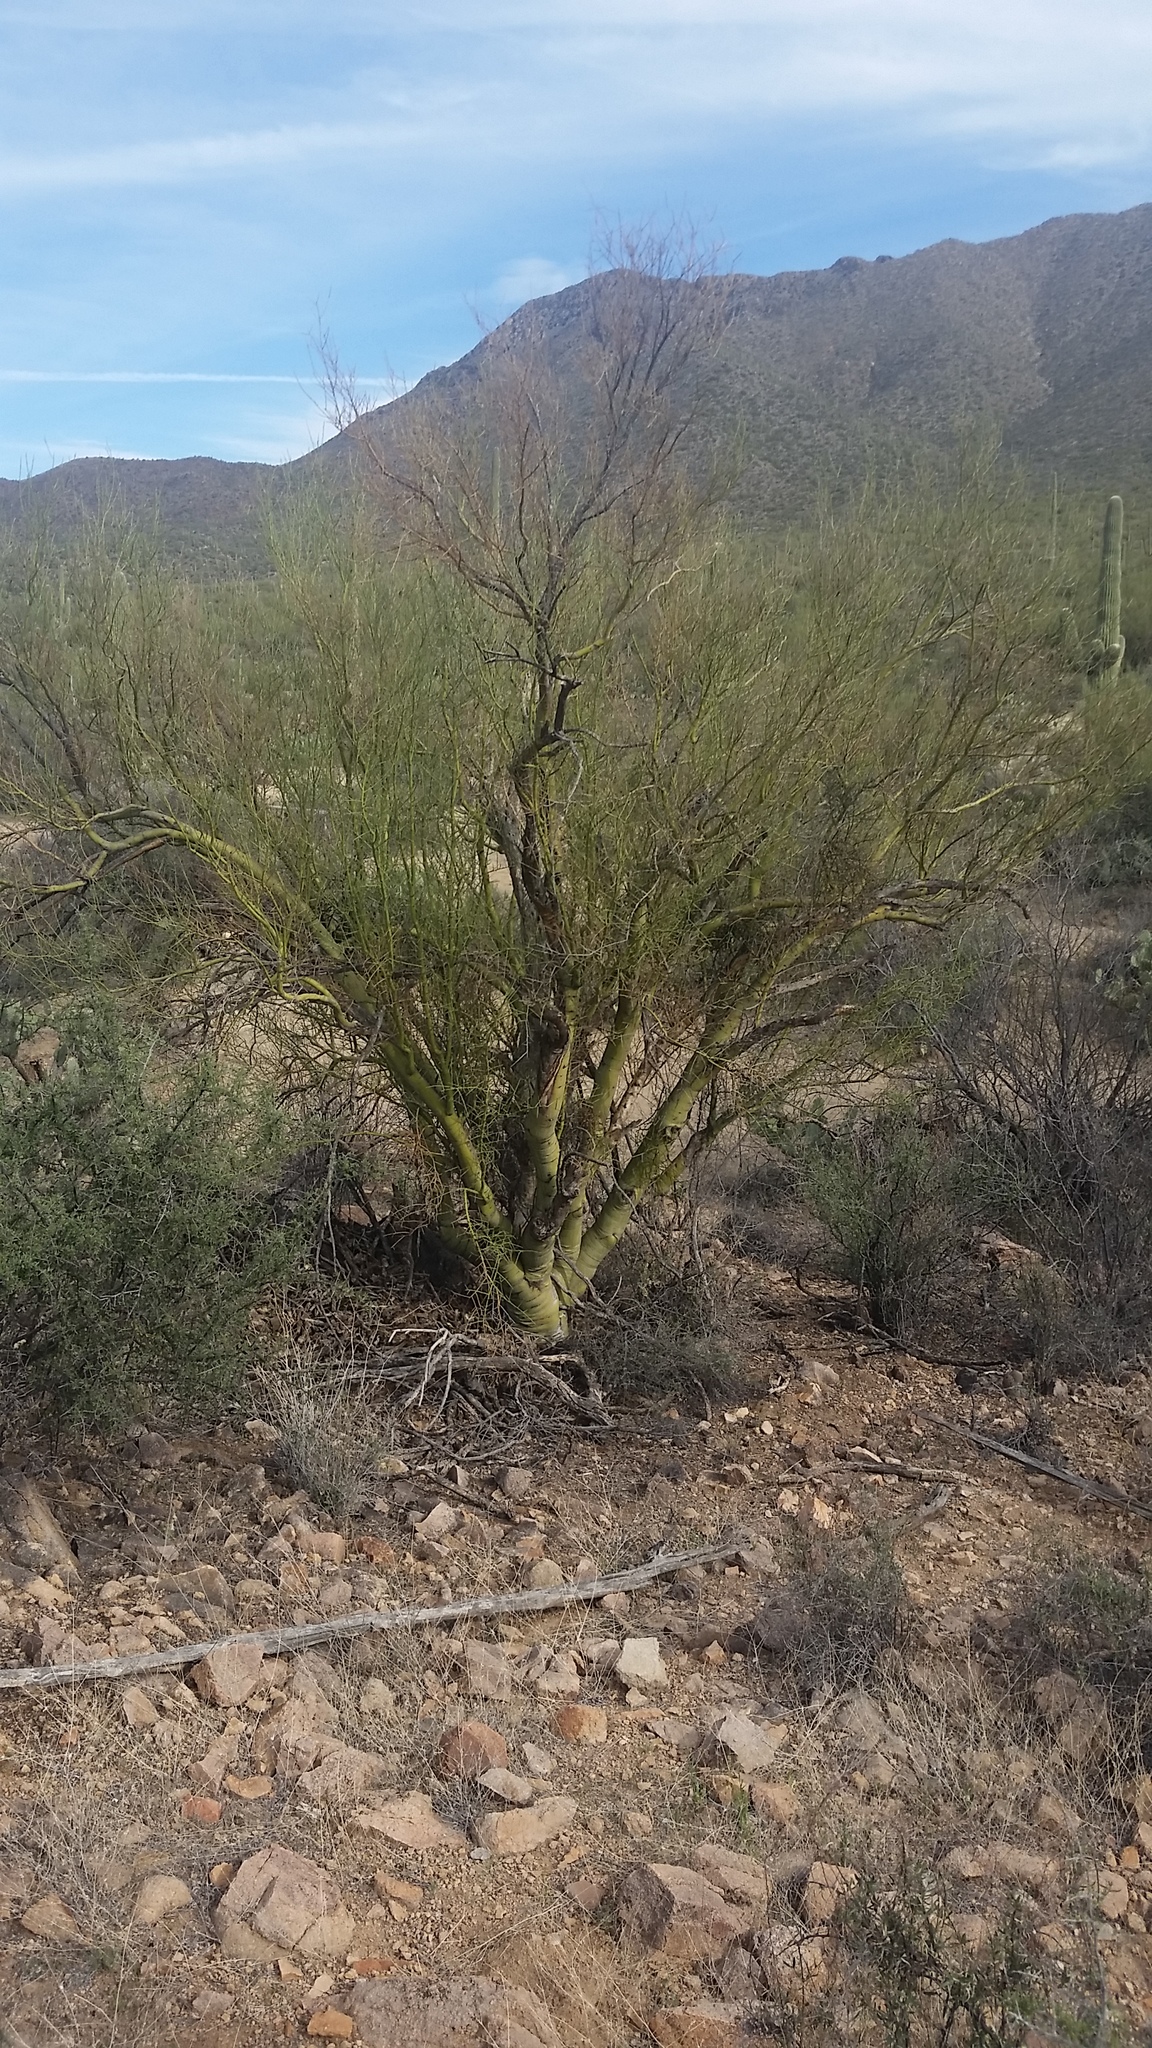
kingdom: Plantae
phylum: Tracheophyta
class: Magnoliopsida
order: Fabales
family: Fabaceae
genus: Parkinsonia
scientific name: Parkinsonia microphylla
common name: Yellow paloverde
